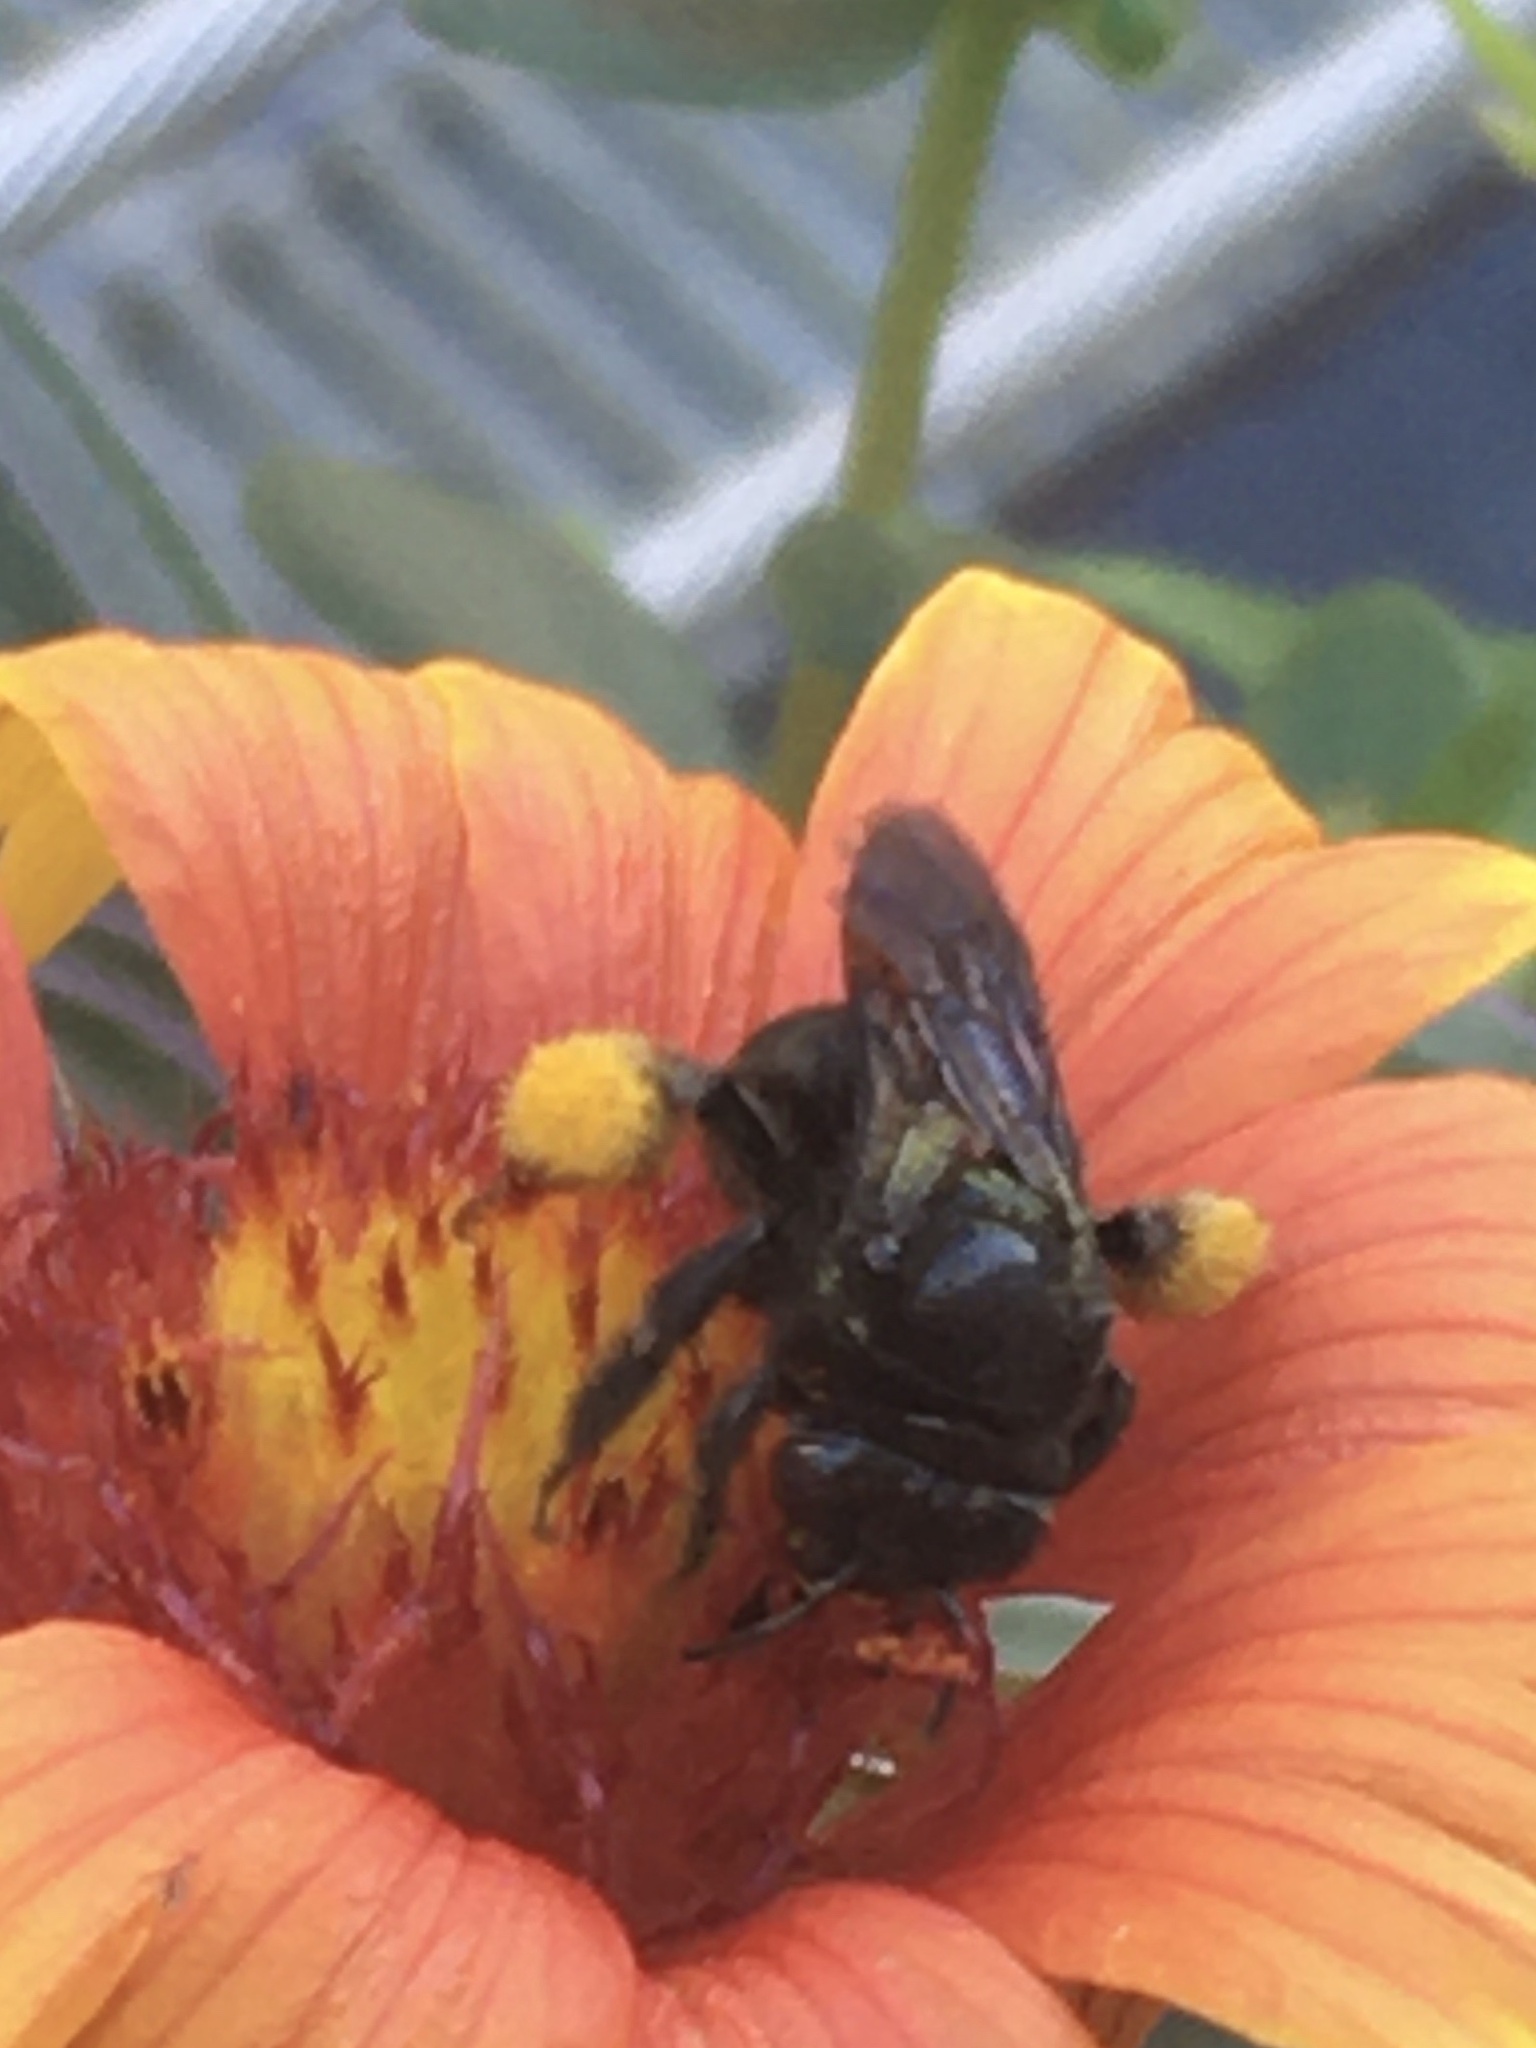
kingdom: Animalia
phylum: Arthropoda
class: Insecta
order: Hymenoptera
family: Apidae
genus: Melissodes
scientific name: Melissodes bimaculatus
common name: Two-spotted long-horned bee
